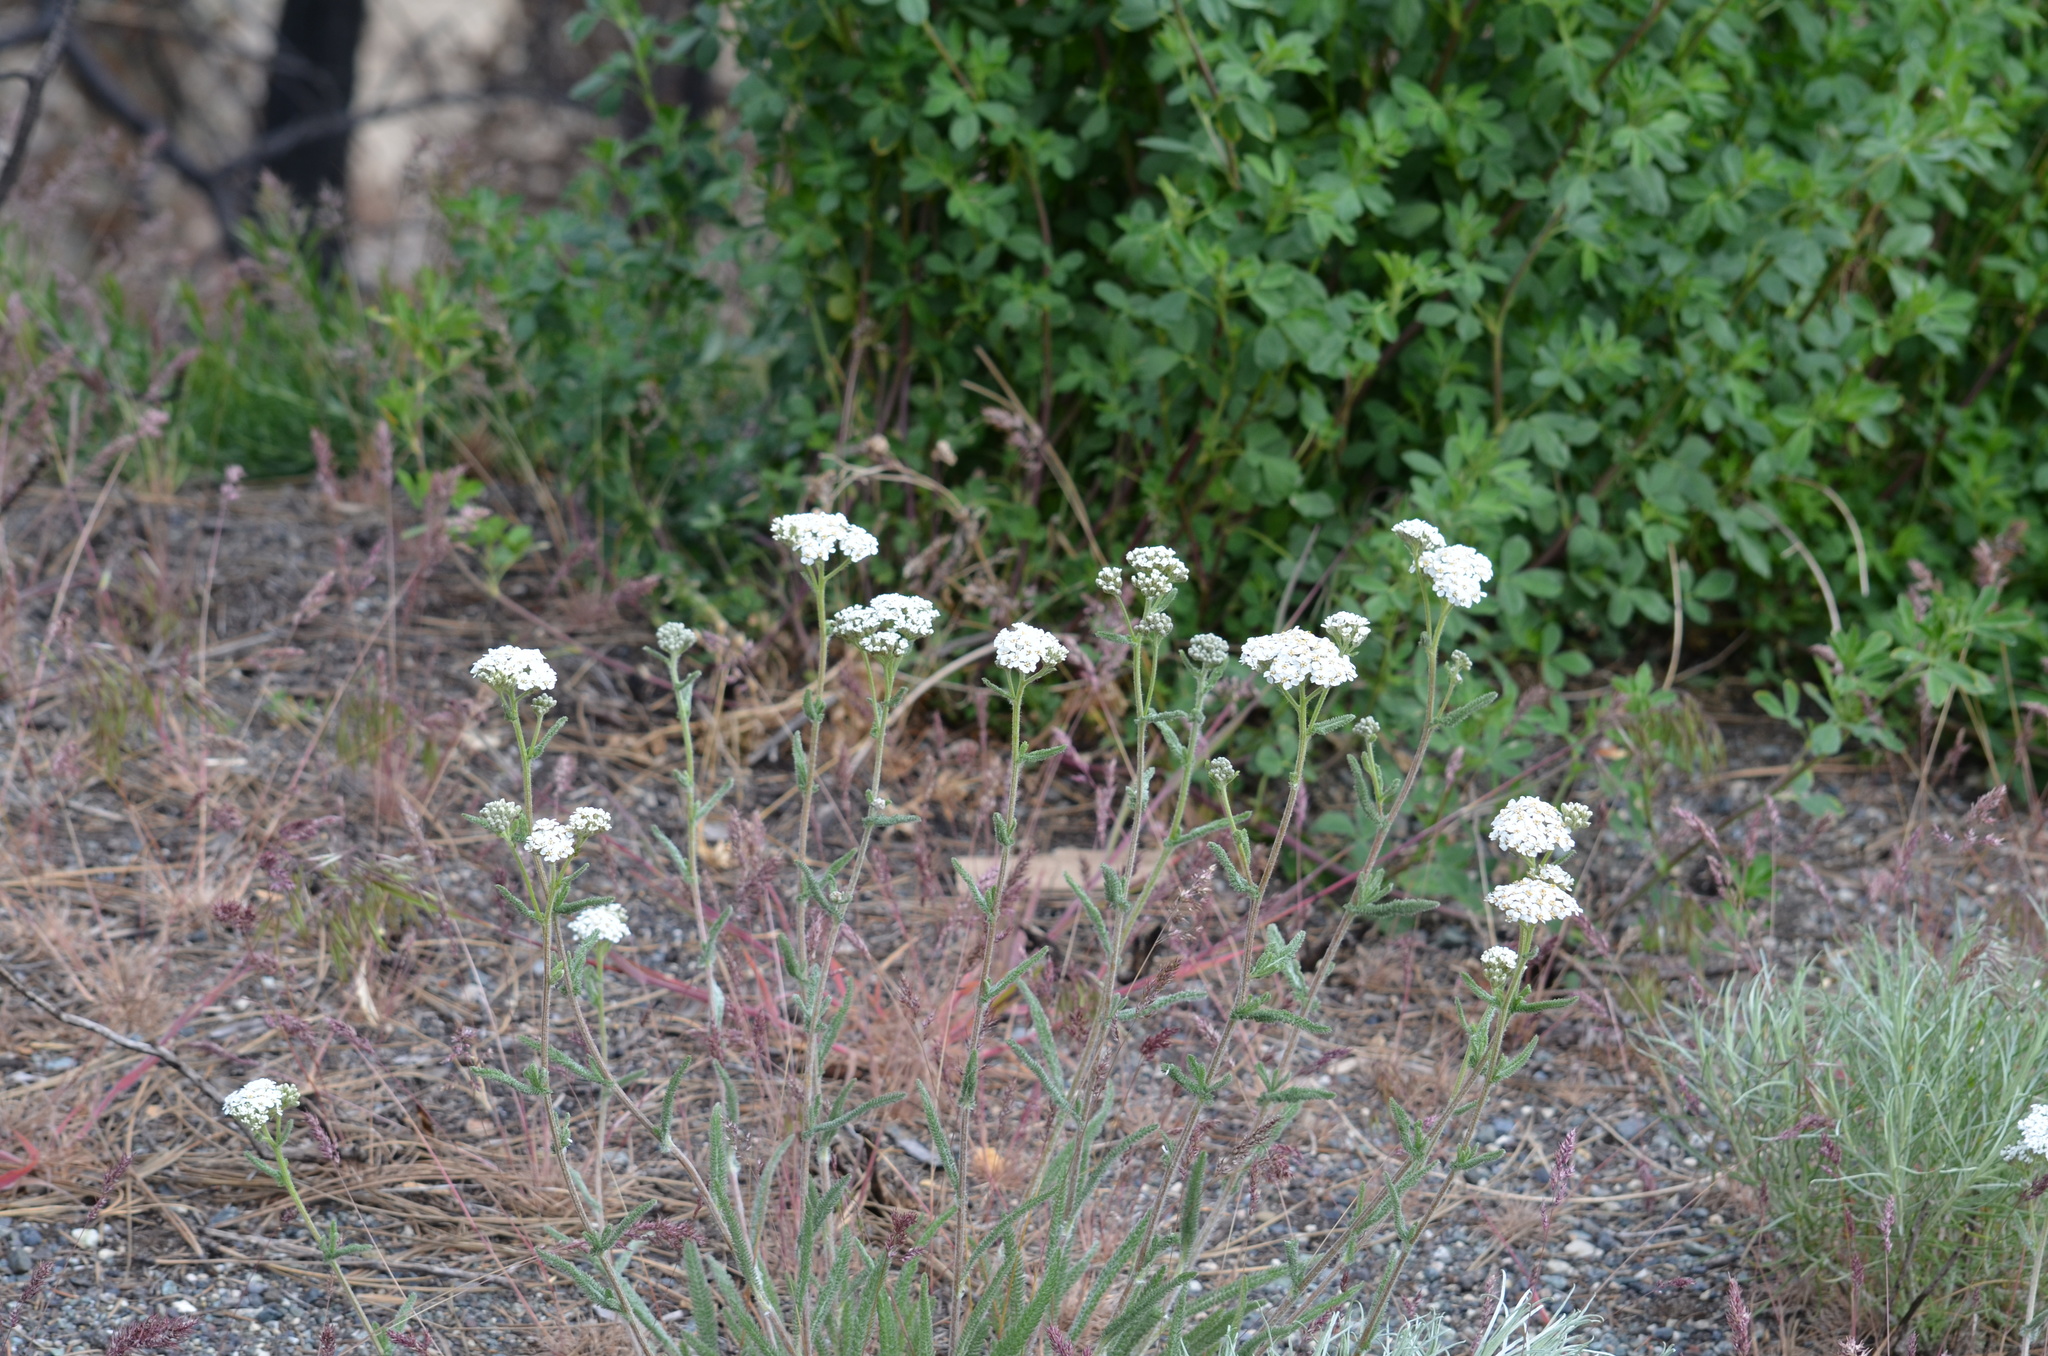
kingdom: Plantae
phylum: Tracheophyta
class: Magnoliopsida
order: Asterales
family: Asteraceae
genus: Achillea
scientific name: Achillea millefolium
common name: Yarrow
